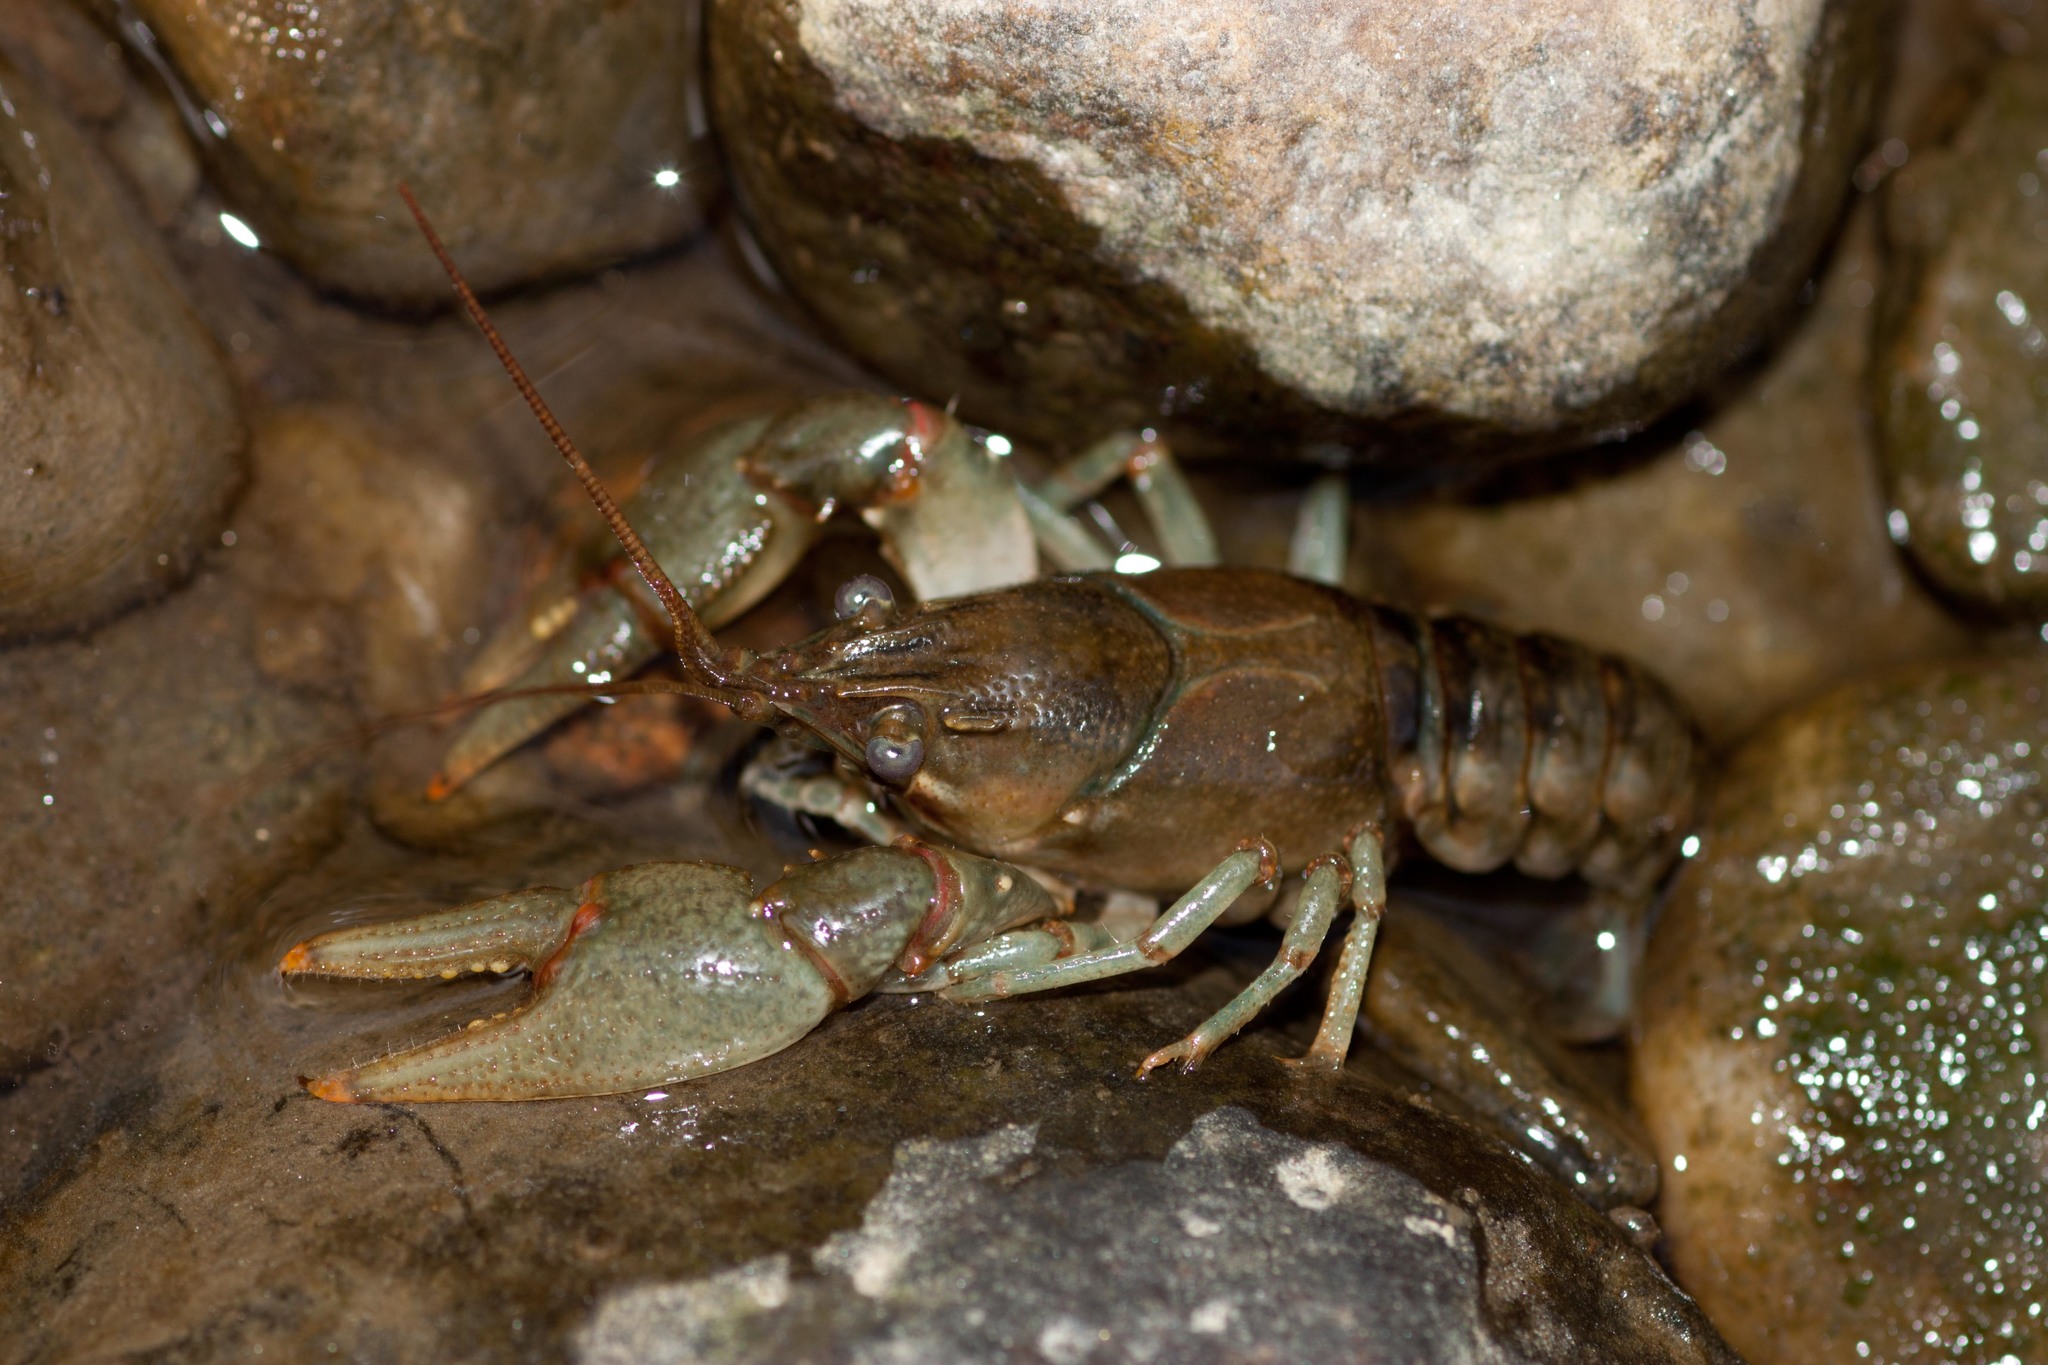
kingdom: Animalia
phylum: Arthropoda
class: Malacostraca
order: Decapoda
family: Cambaridae
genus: Faxonius
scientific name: Faxonius propinquus
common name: Northern clearwater crayfish
